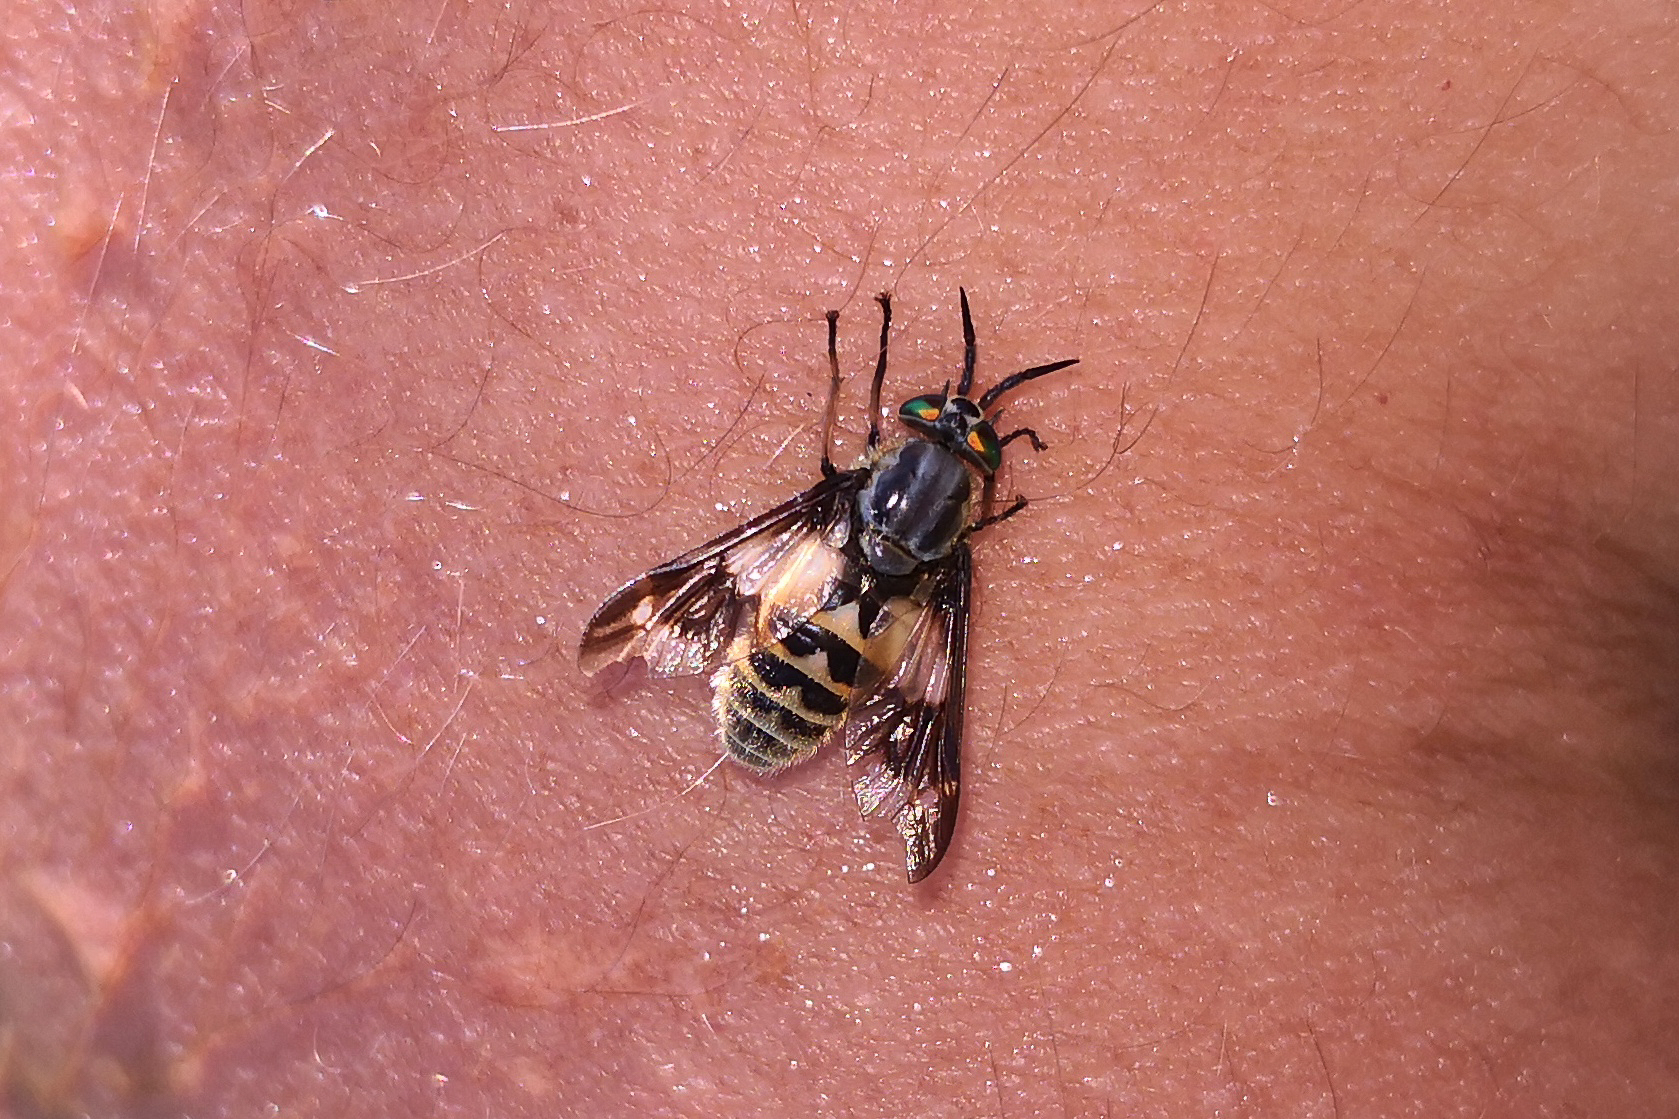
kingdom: Animalia
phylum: Arthropoda
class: Insecta
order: Diptera
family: Tabanidae
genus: Chrysops
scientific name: Chrysops relictus
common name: Twin-lobed deerfly
